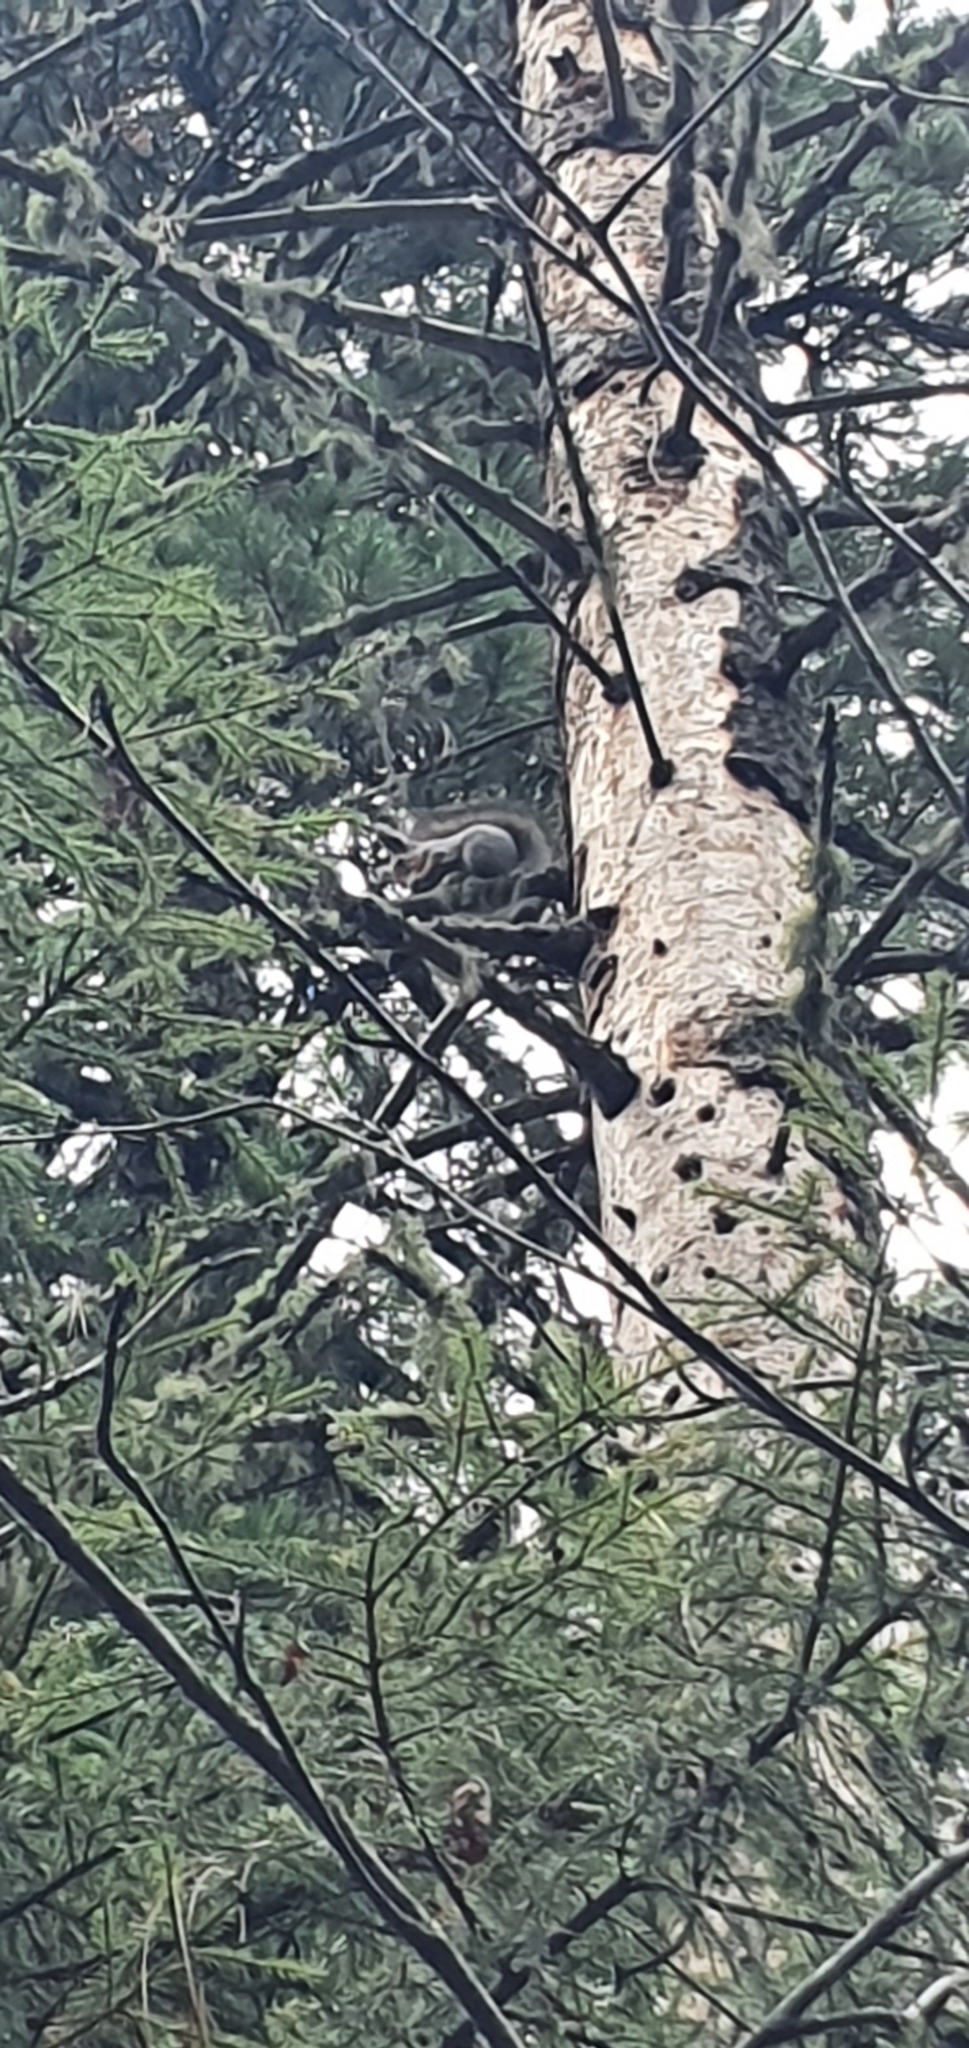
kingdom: Animalia
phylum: Chordata
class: Mammalia
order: Rodentia
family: Sciuridae
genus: Sciurus
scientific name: Sciurus vulgaris
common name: Eurasian red squirrel
